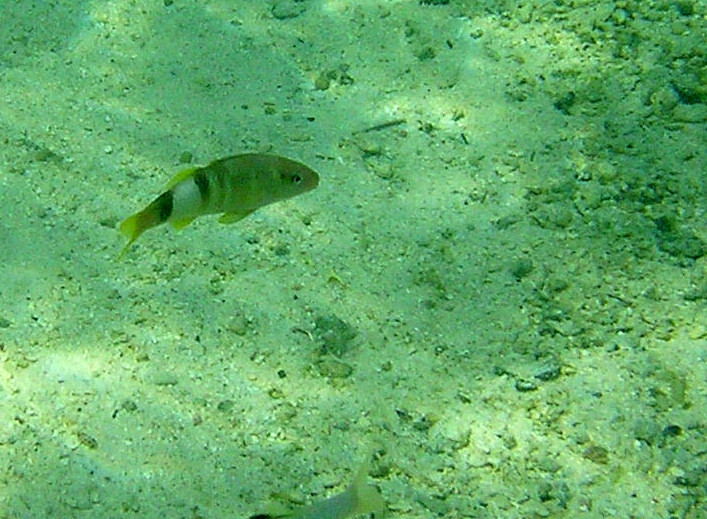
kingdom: Animalia
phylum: Chordata
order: Perciformes
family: Mullidae
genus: Parupeneus
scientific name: Parupeneus multifasciatus
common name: Manybar goatfish
